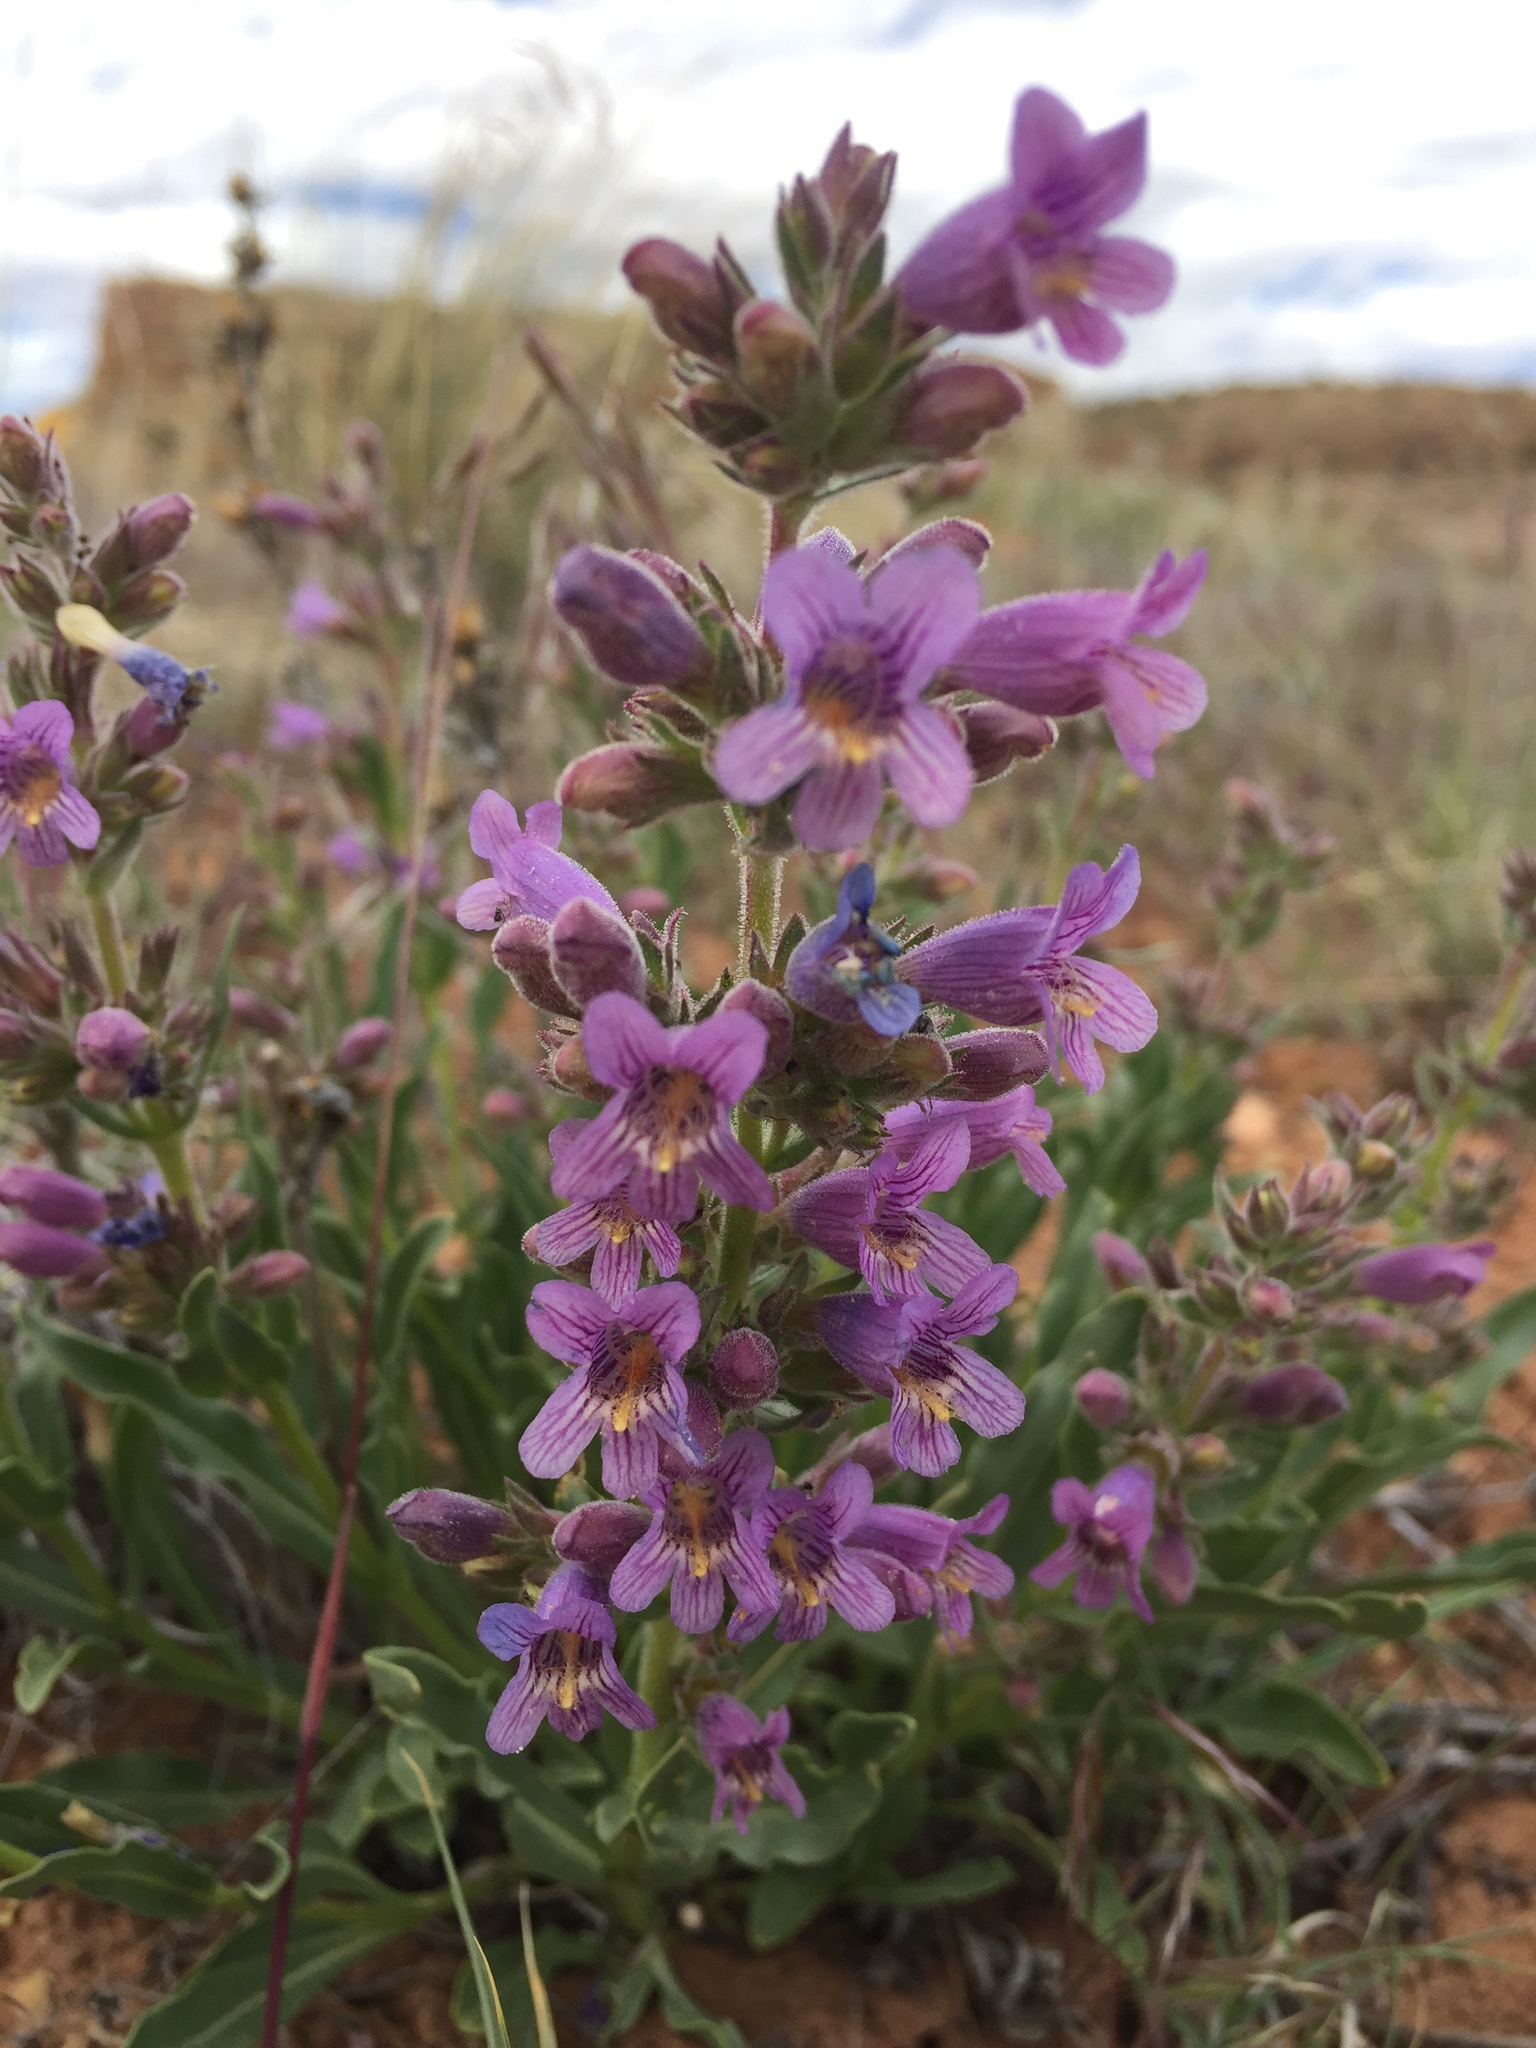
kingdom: Plantae
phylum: Tracheophyta
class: Magnoliopsida
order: Lamiales
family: Plantaginaceae
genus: Penstemon
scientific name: Penstemon breviculus
